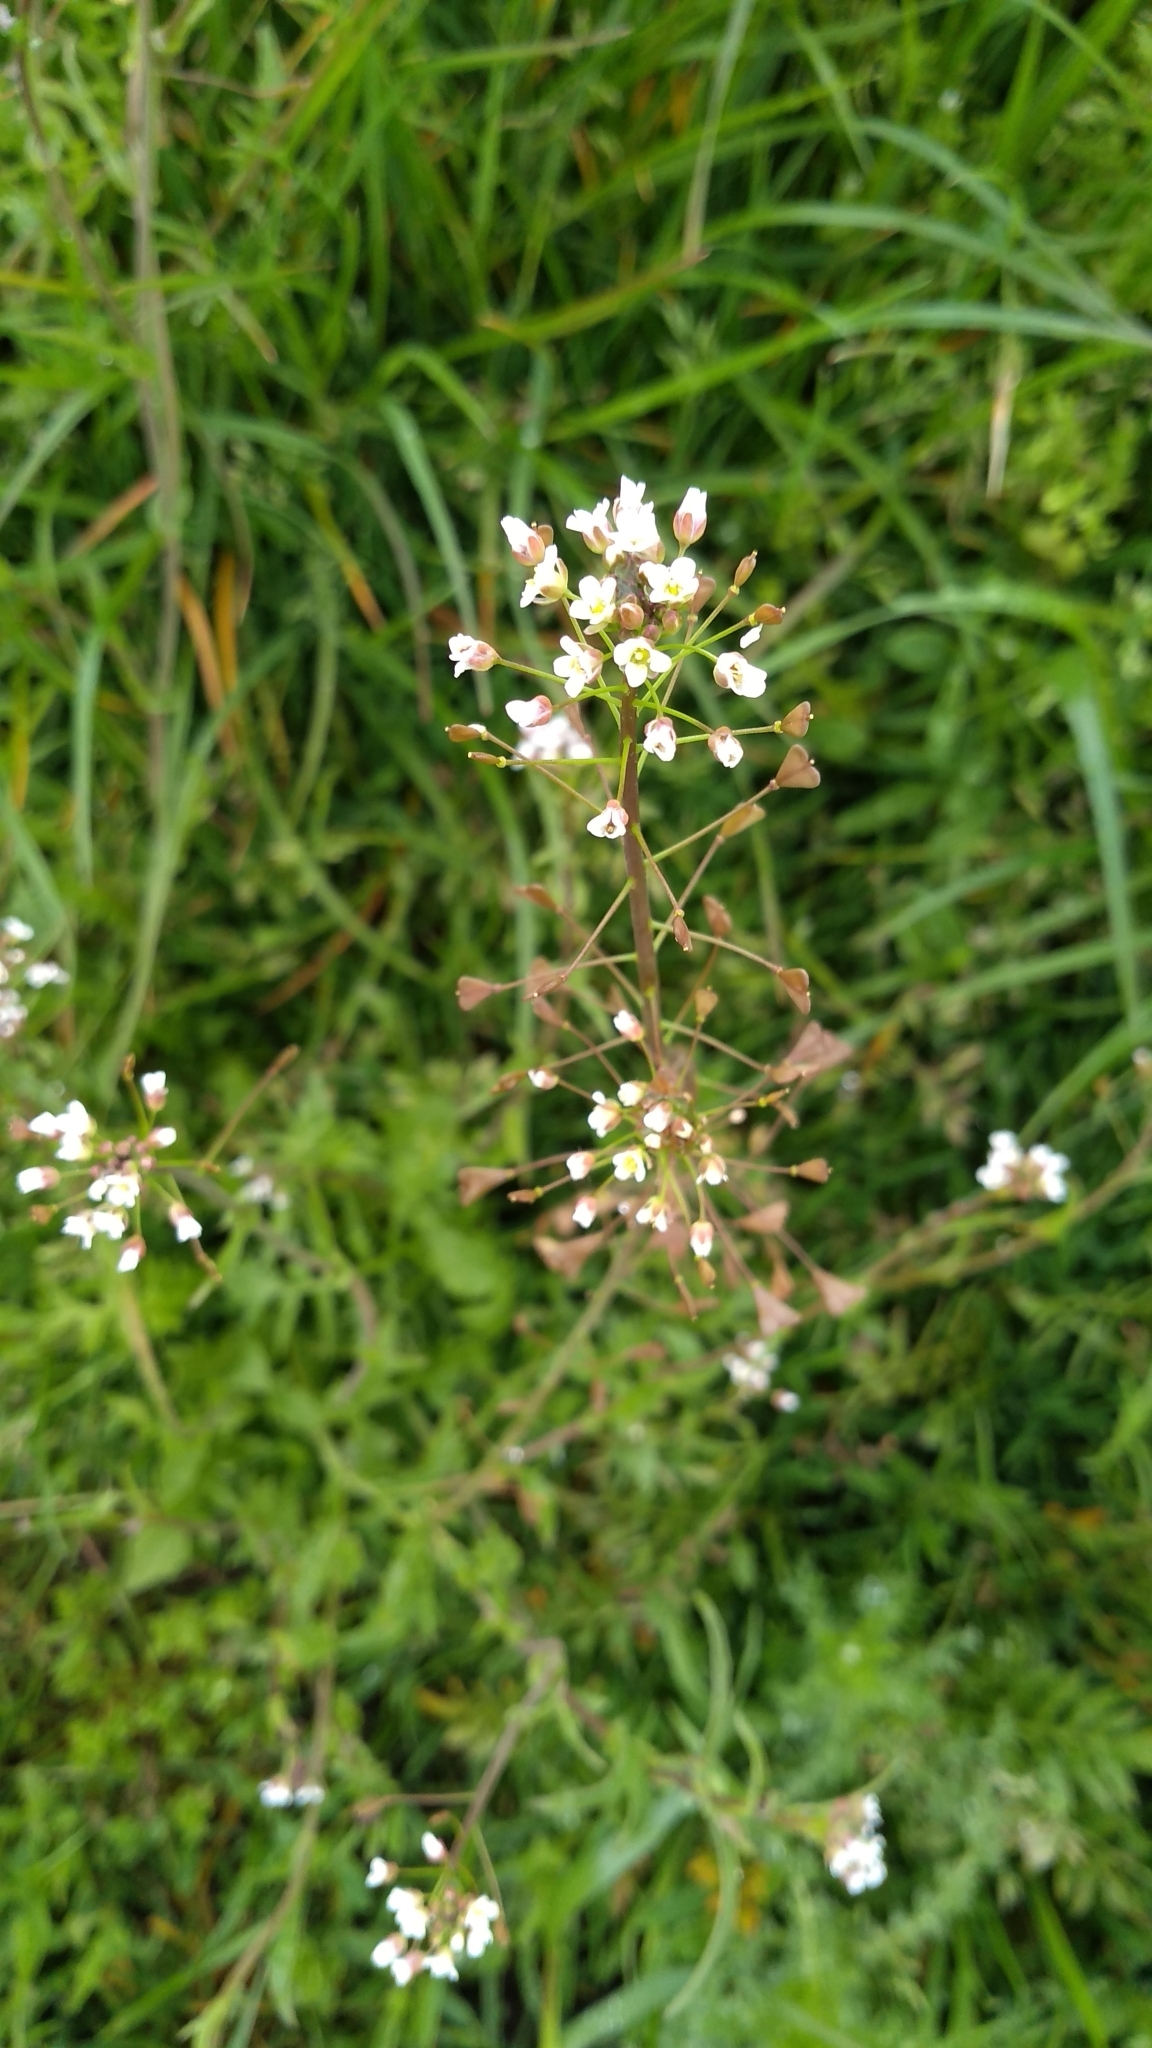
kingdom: Plantae
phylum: Tracheophyta
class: Magnoliopsida
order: Brassicales
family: Brassicaceae
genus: Capsella
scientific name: Capsella bursa-pastoris
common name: Shepherd's purse
